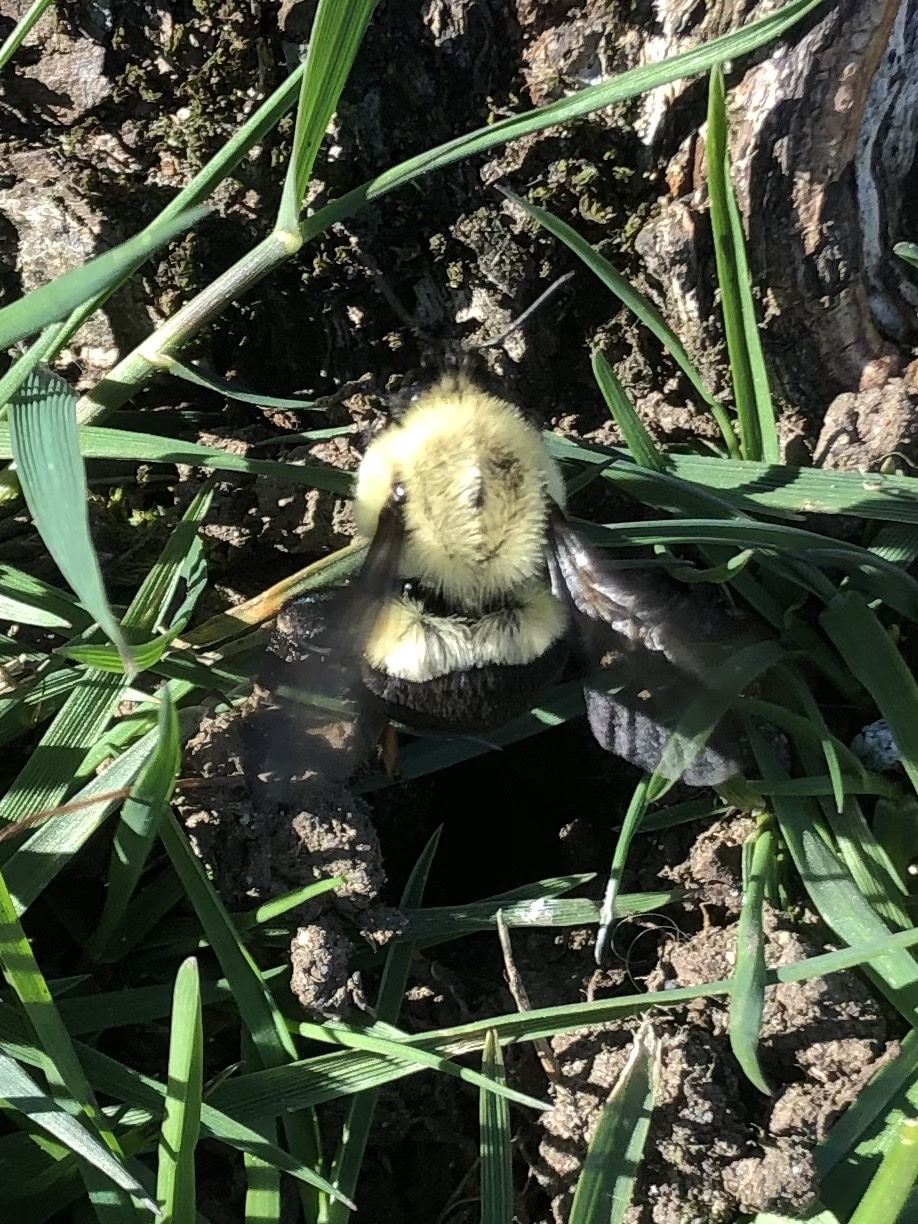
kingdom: Animalia
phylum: Arthropoda
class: Insecta
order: Hymenoptera
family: Apidae
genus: Bombus
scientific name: Bombus impatiens
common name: Common eastern bumble bee
